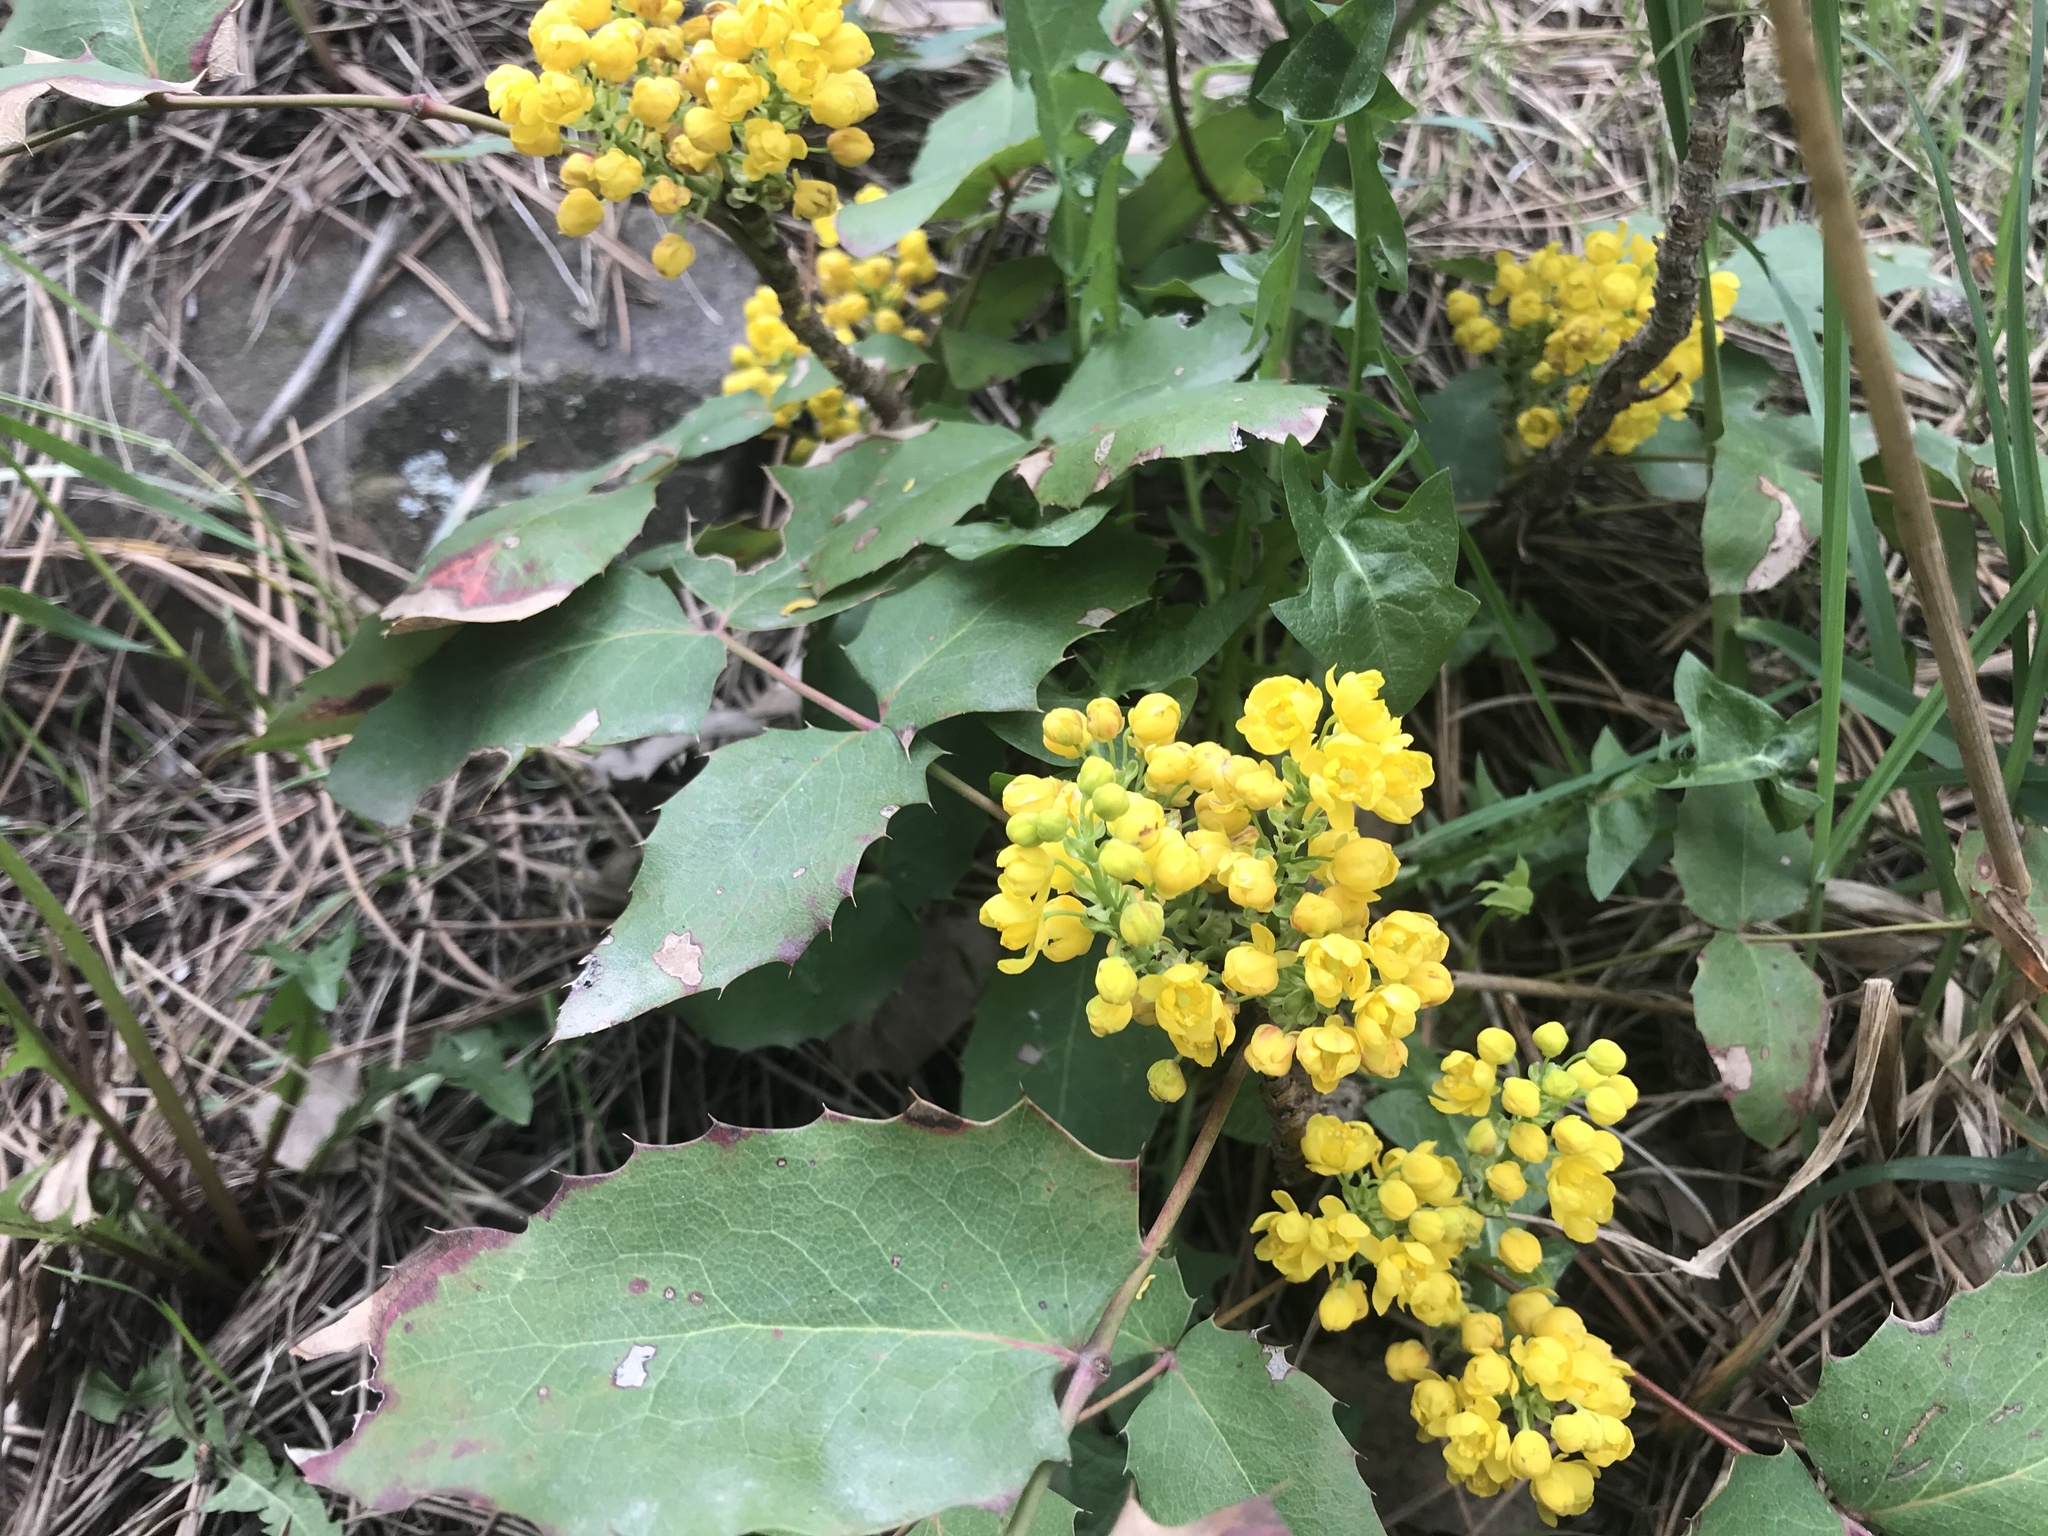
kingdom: Plantae
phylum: Tracheophyta
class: Magnoliopsida
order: Ranunculales
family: Berberidaceae
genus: Mahonia
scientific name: Mahonia repens
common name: Creeping oregon-grape
